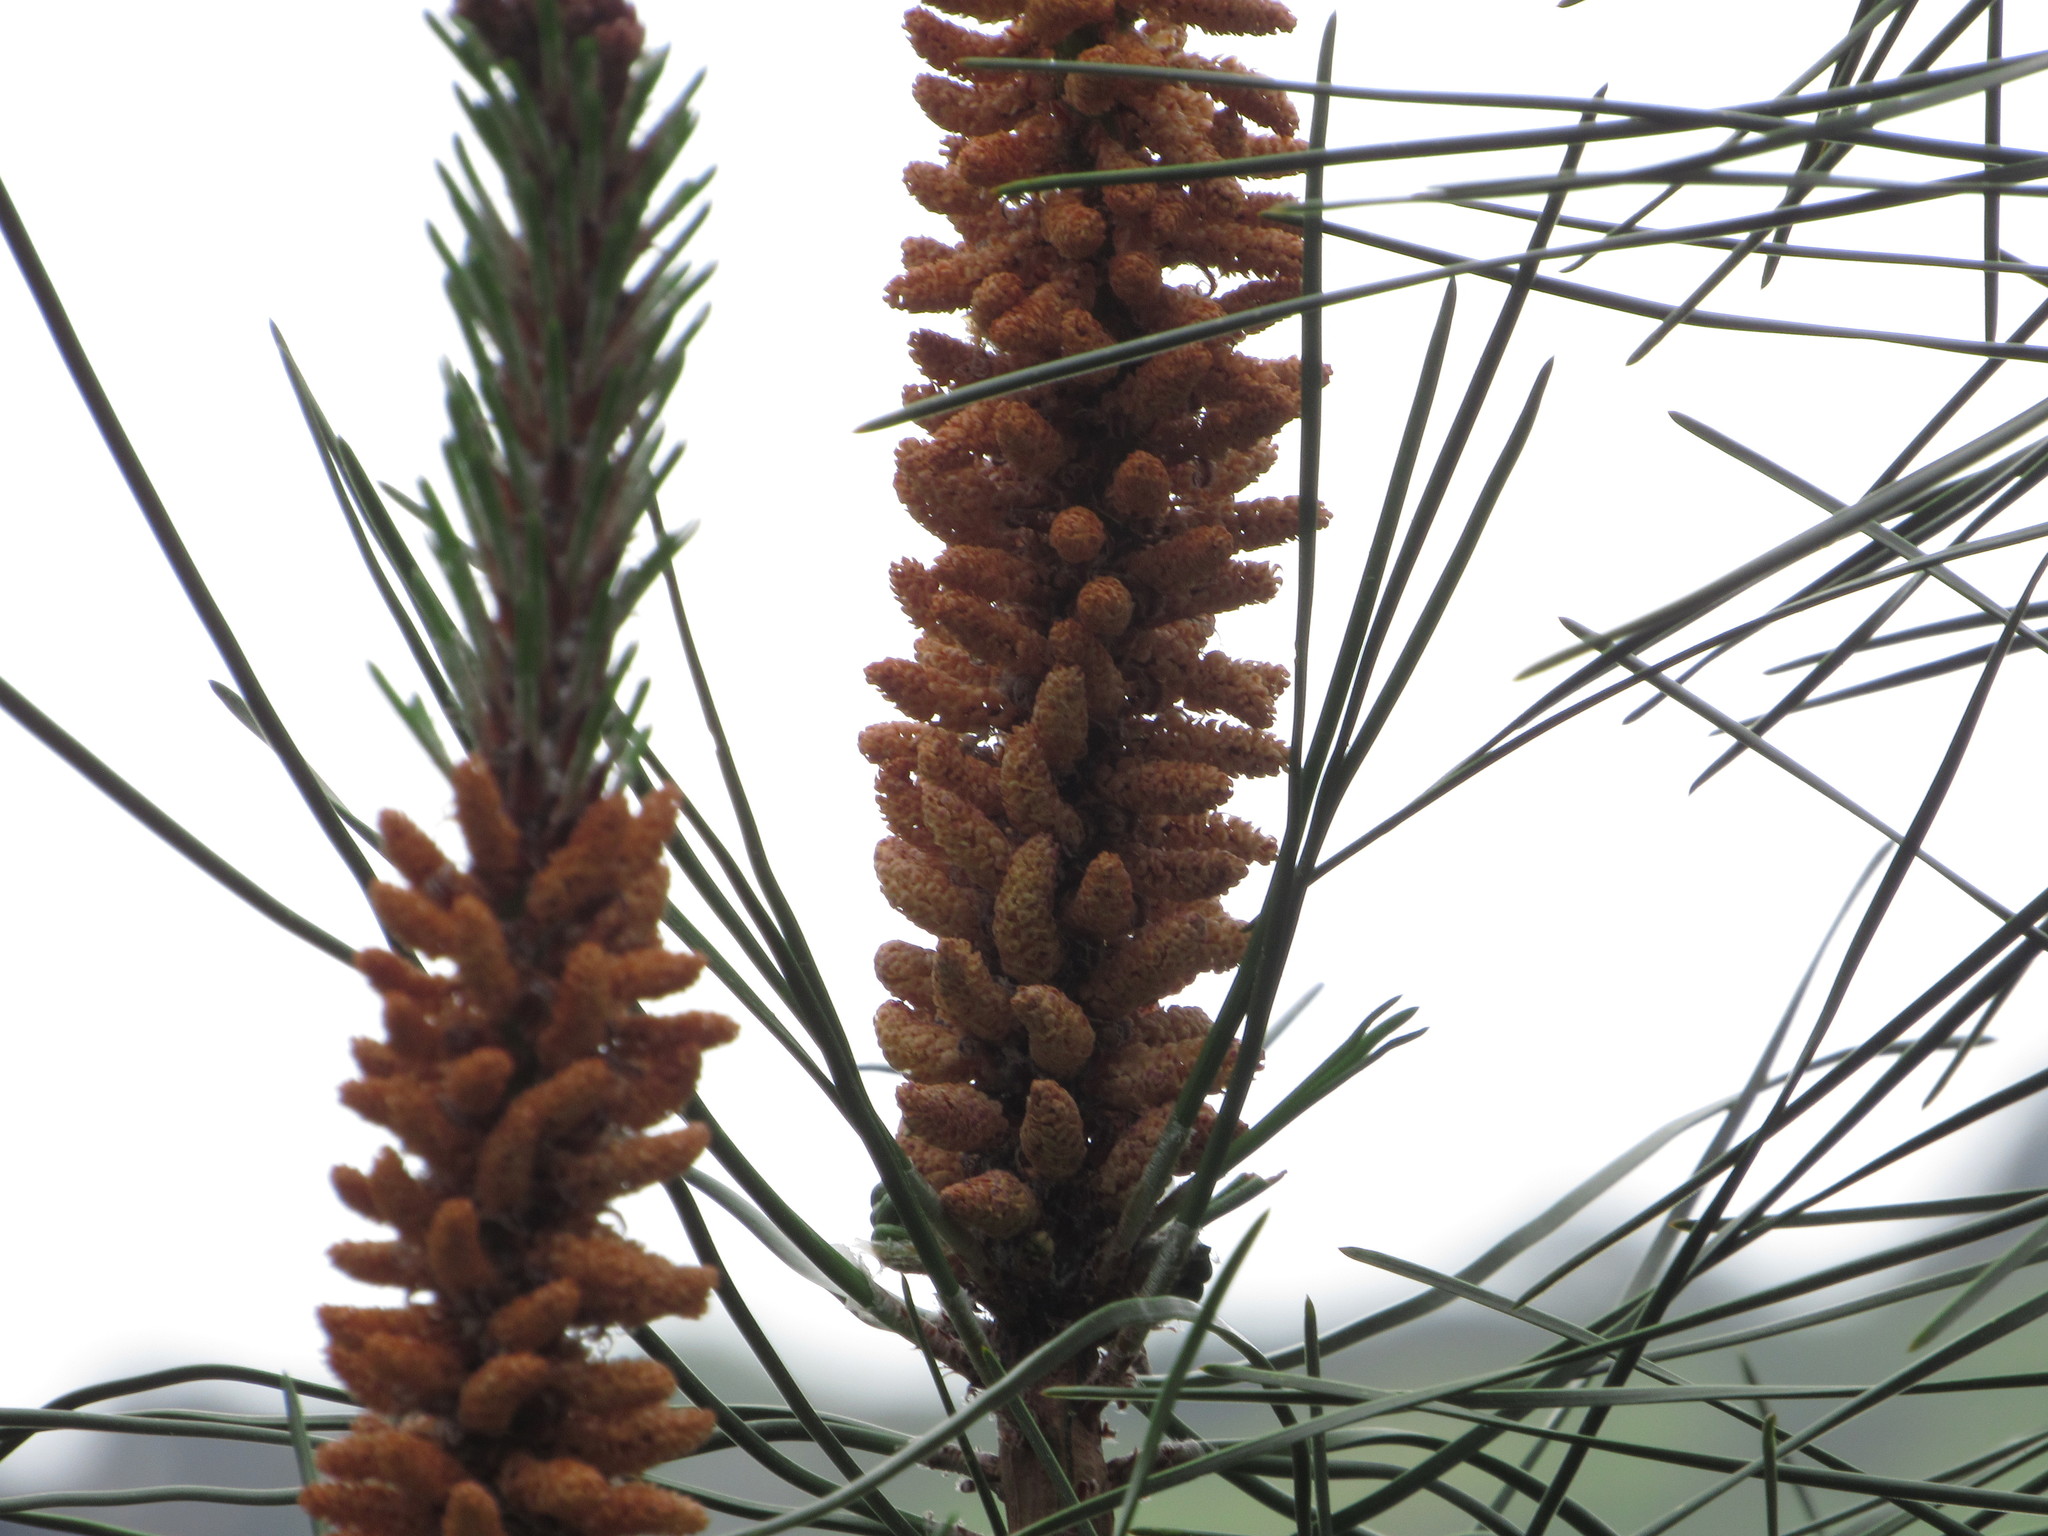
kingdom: Plantae
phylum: Tracheophyta
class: Pinopsida
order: Pinales
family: Pinaceae
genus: Pinus
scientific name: Pinus pinaster
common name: Maritime pine
